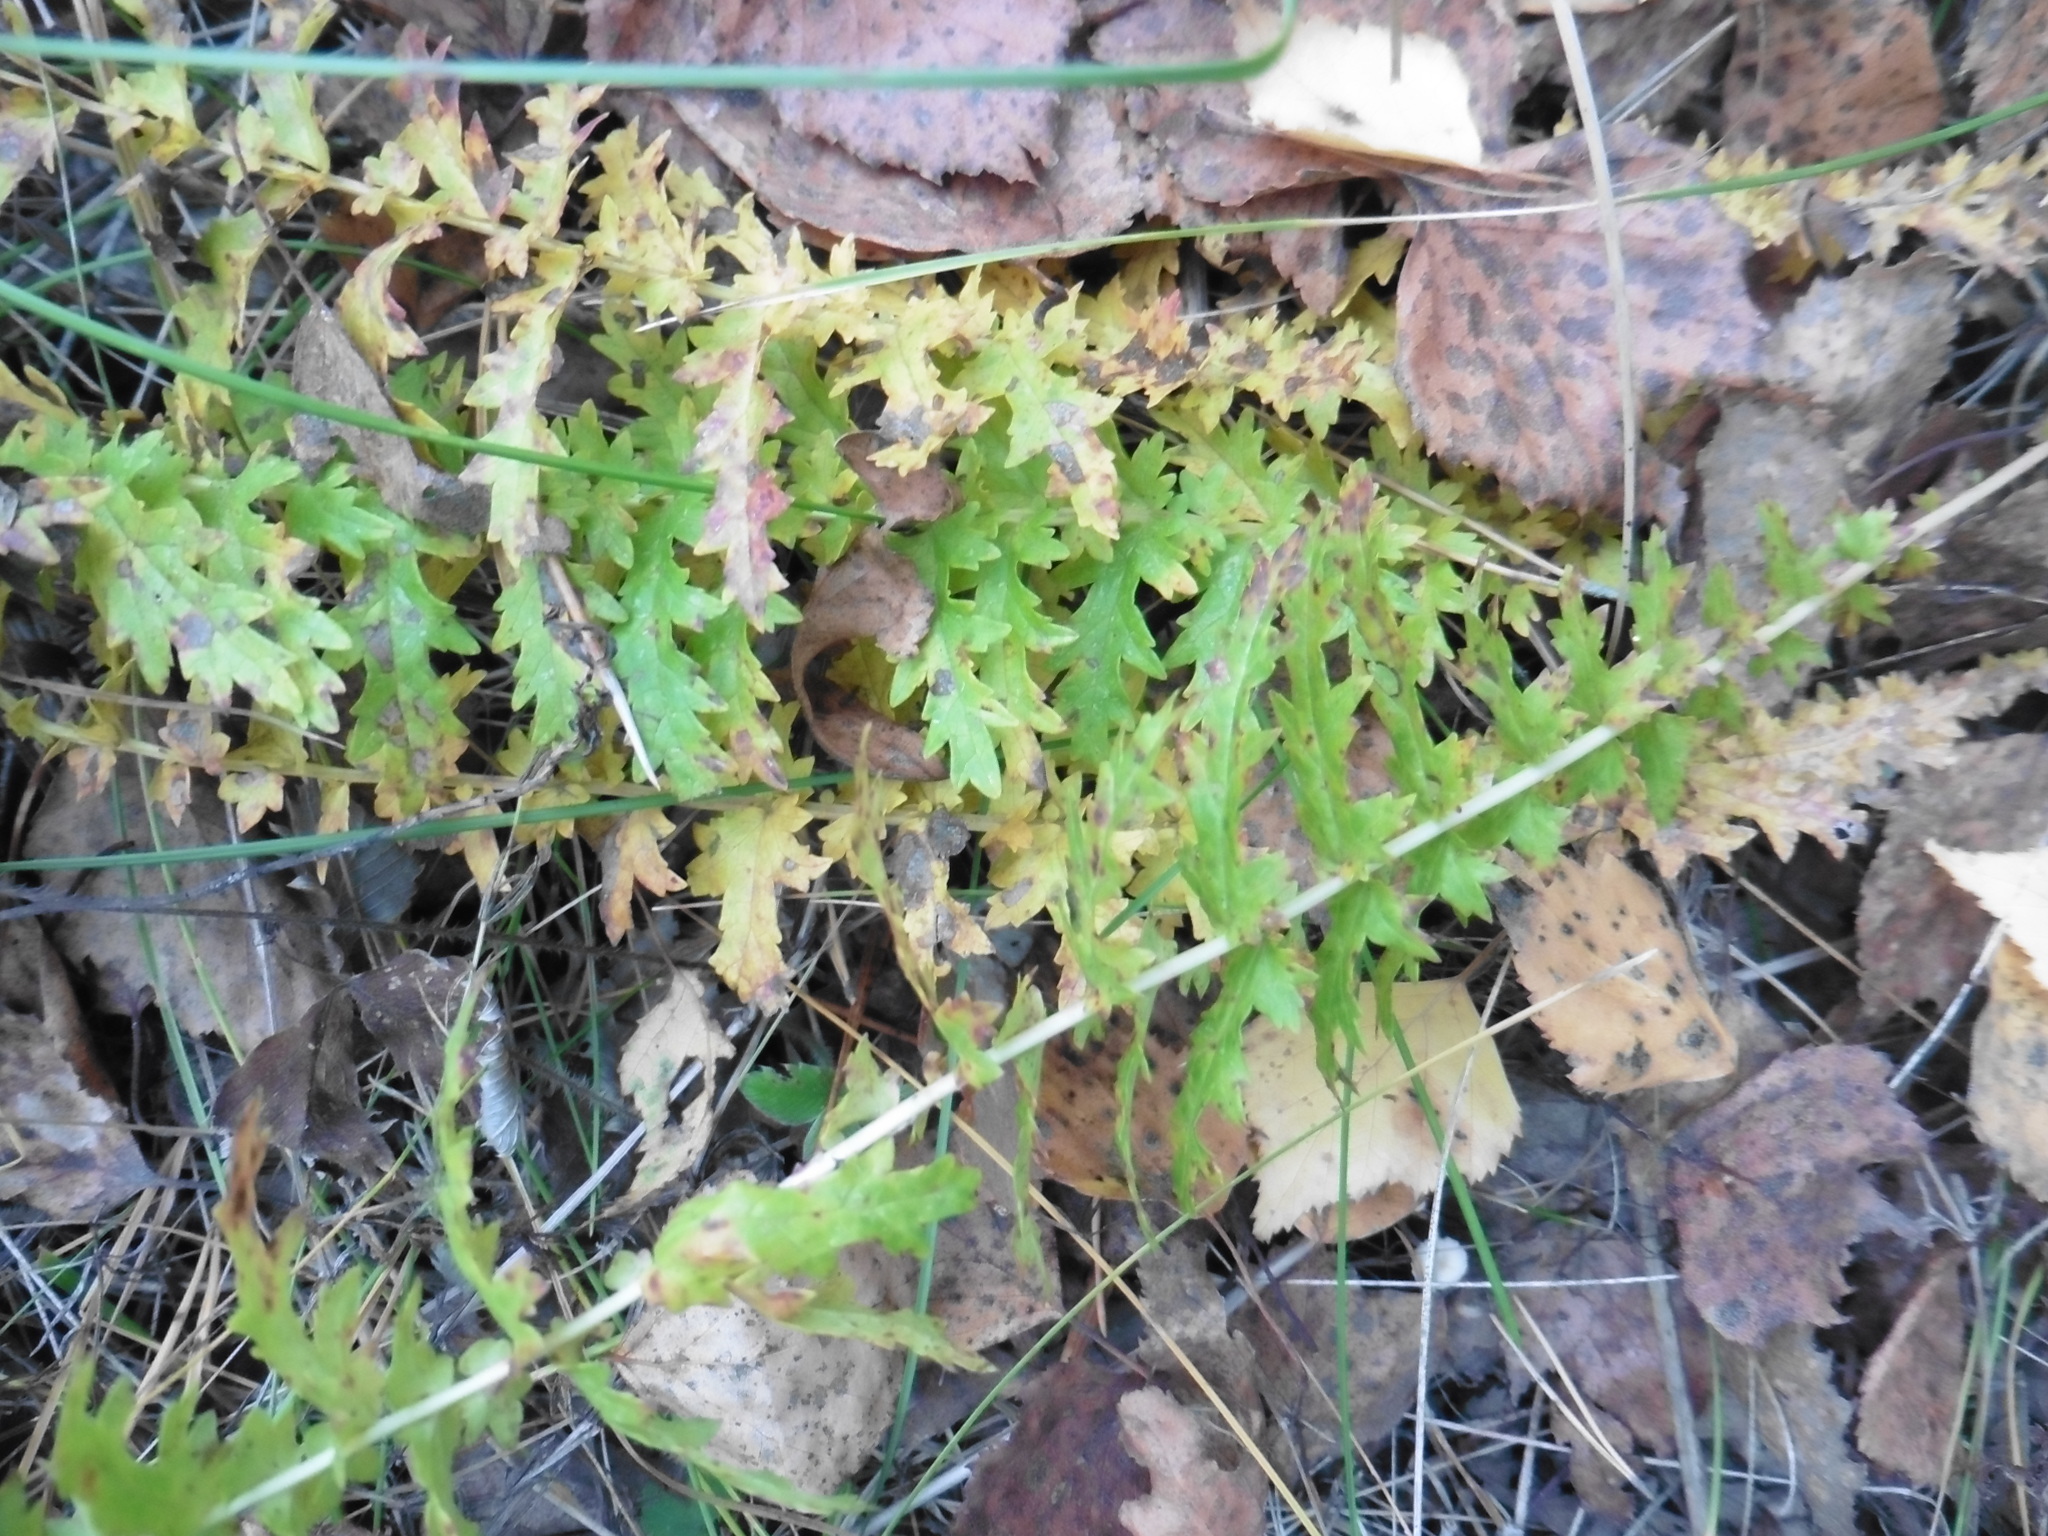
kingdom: Plantae
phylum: Tracheophyta
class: Magnoliopsida
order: Rosales
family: Rosaceae
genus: Filipendula
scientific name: Filipendula vulgaris
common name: Dropwort
